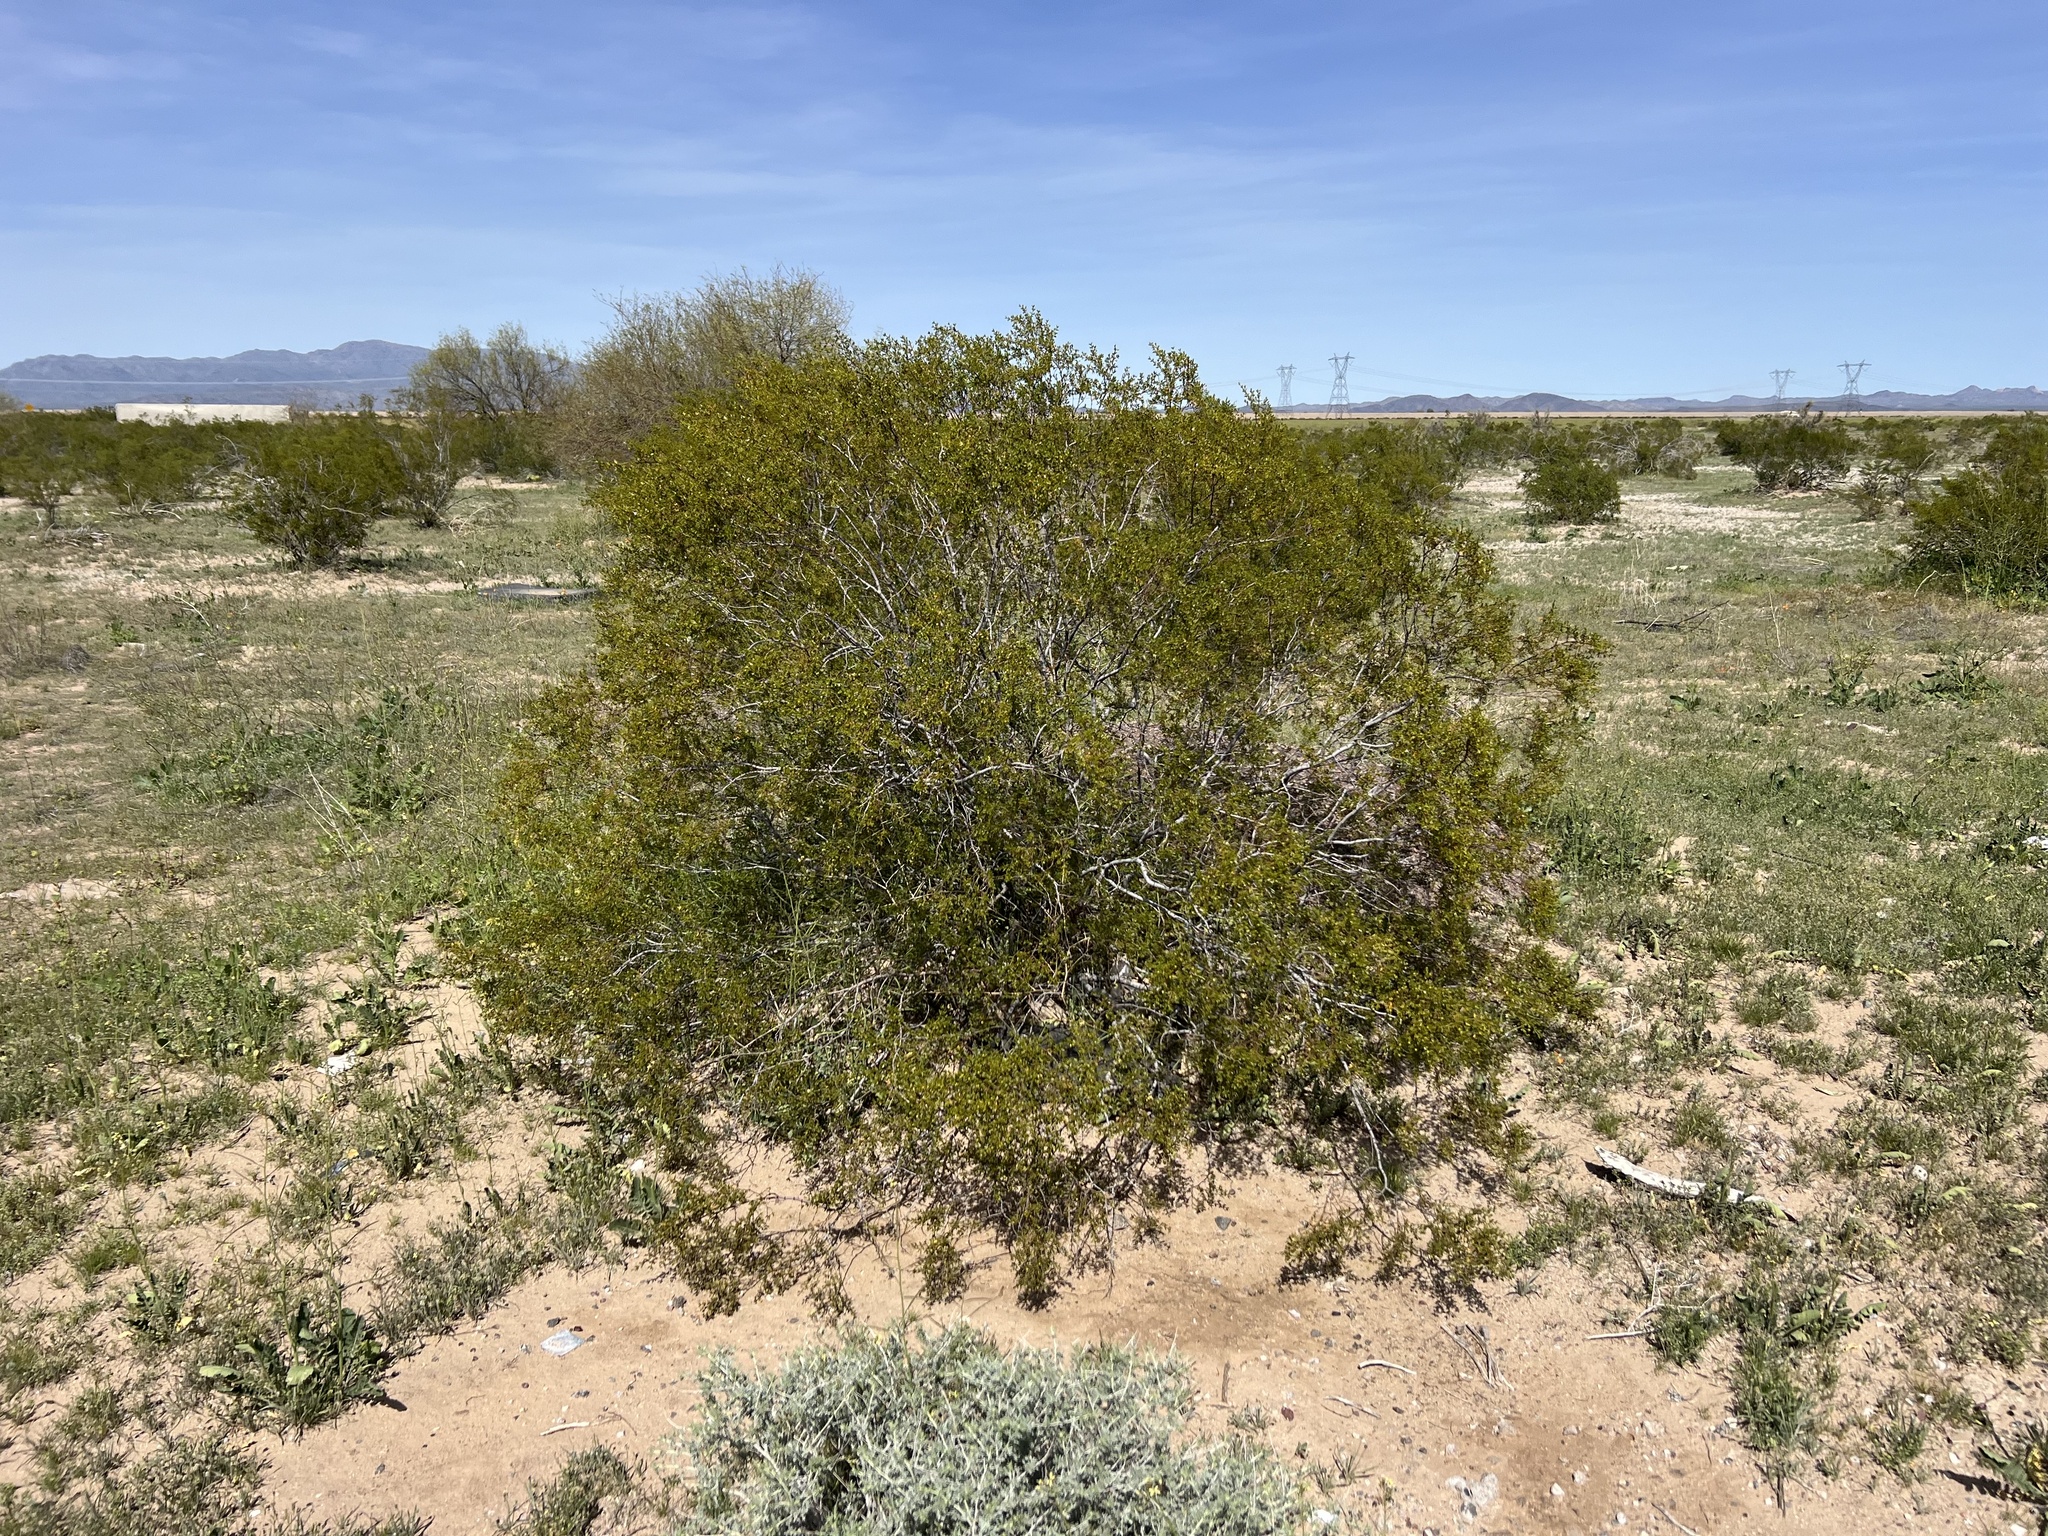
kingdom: Plantae
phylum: Tracheophyta
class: Magnoliopsida
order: Zygophyllales
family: Zygophyllaceae
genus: Larrea
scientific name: Larrea tridentata
